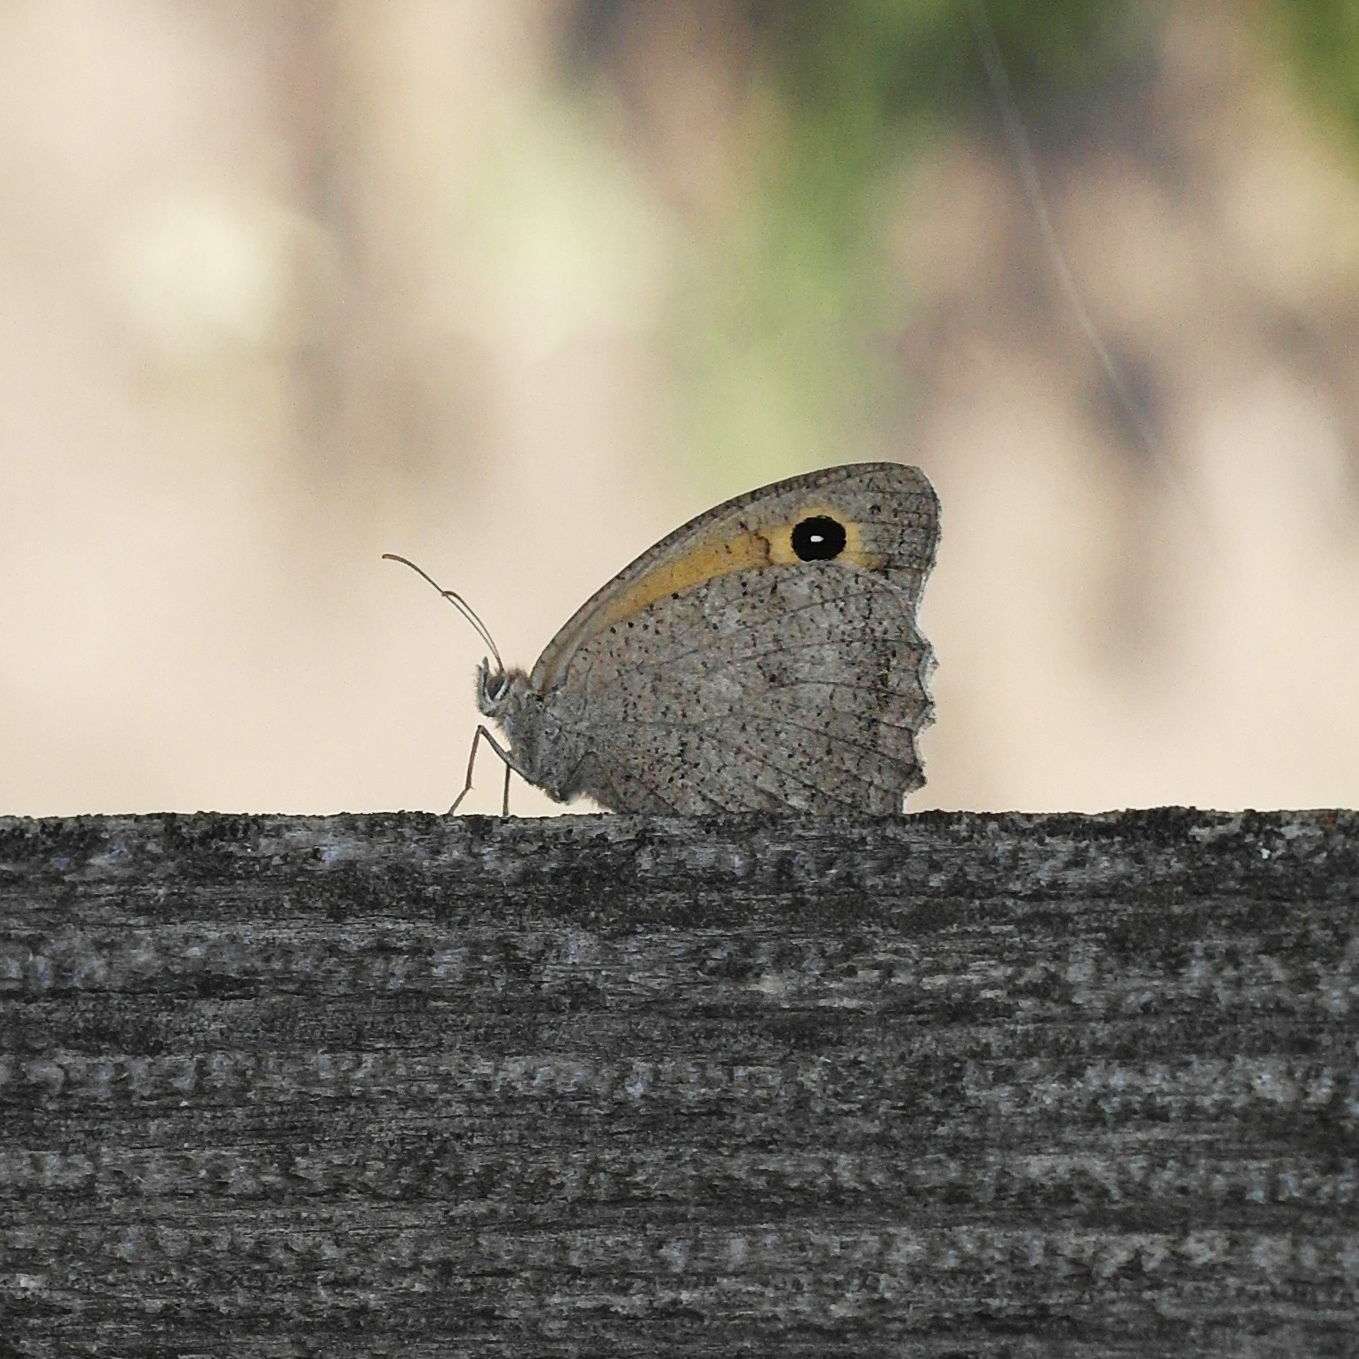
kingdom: Animalia
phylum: Arthropoda
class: Insecta
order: Lepidoptera
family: Nymphalidae
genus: Hyponephele
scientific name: Hyponephele lupinus
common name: Oriental meadow brown
